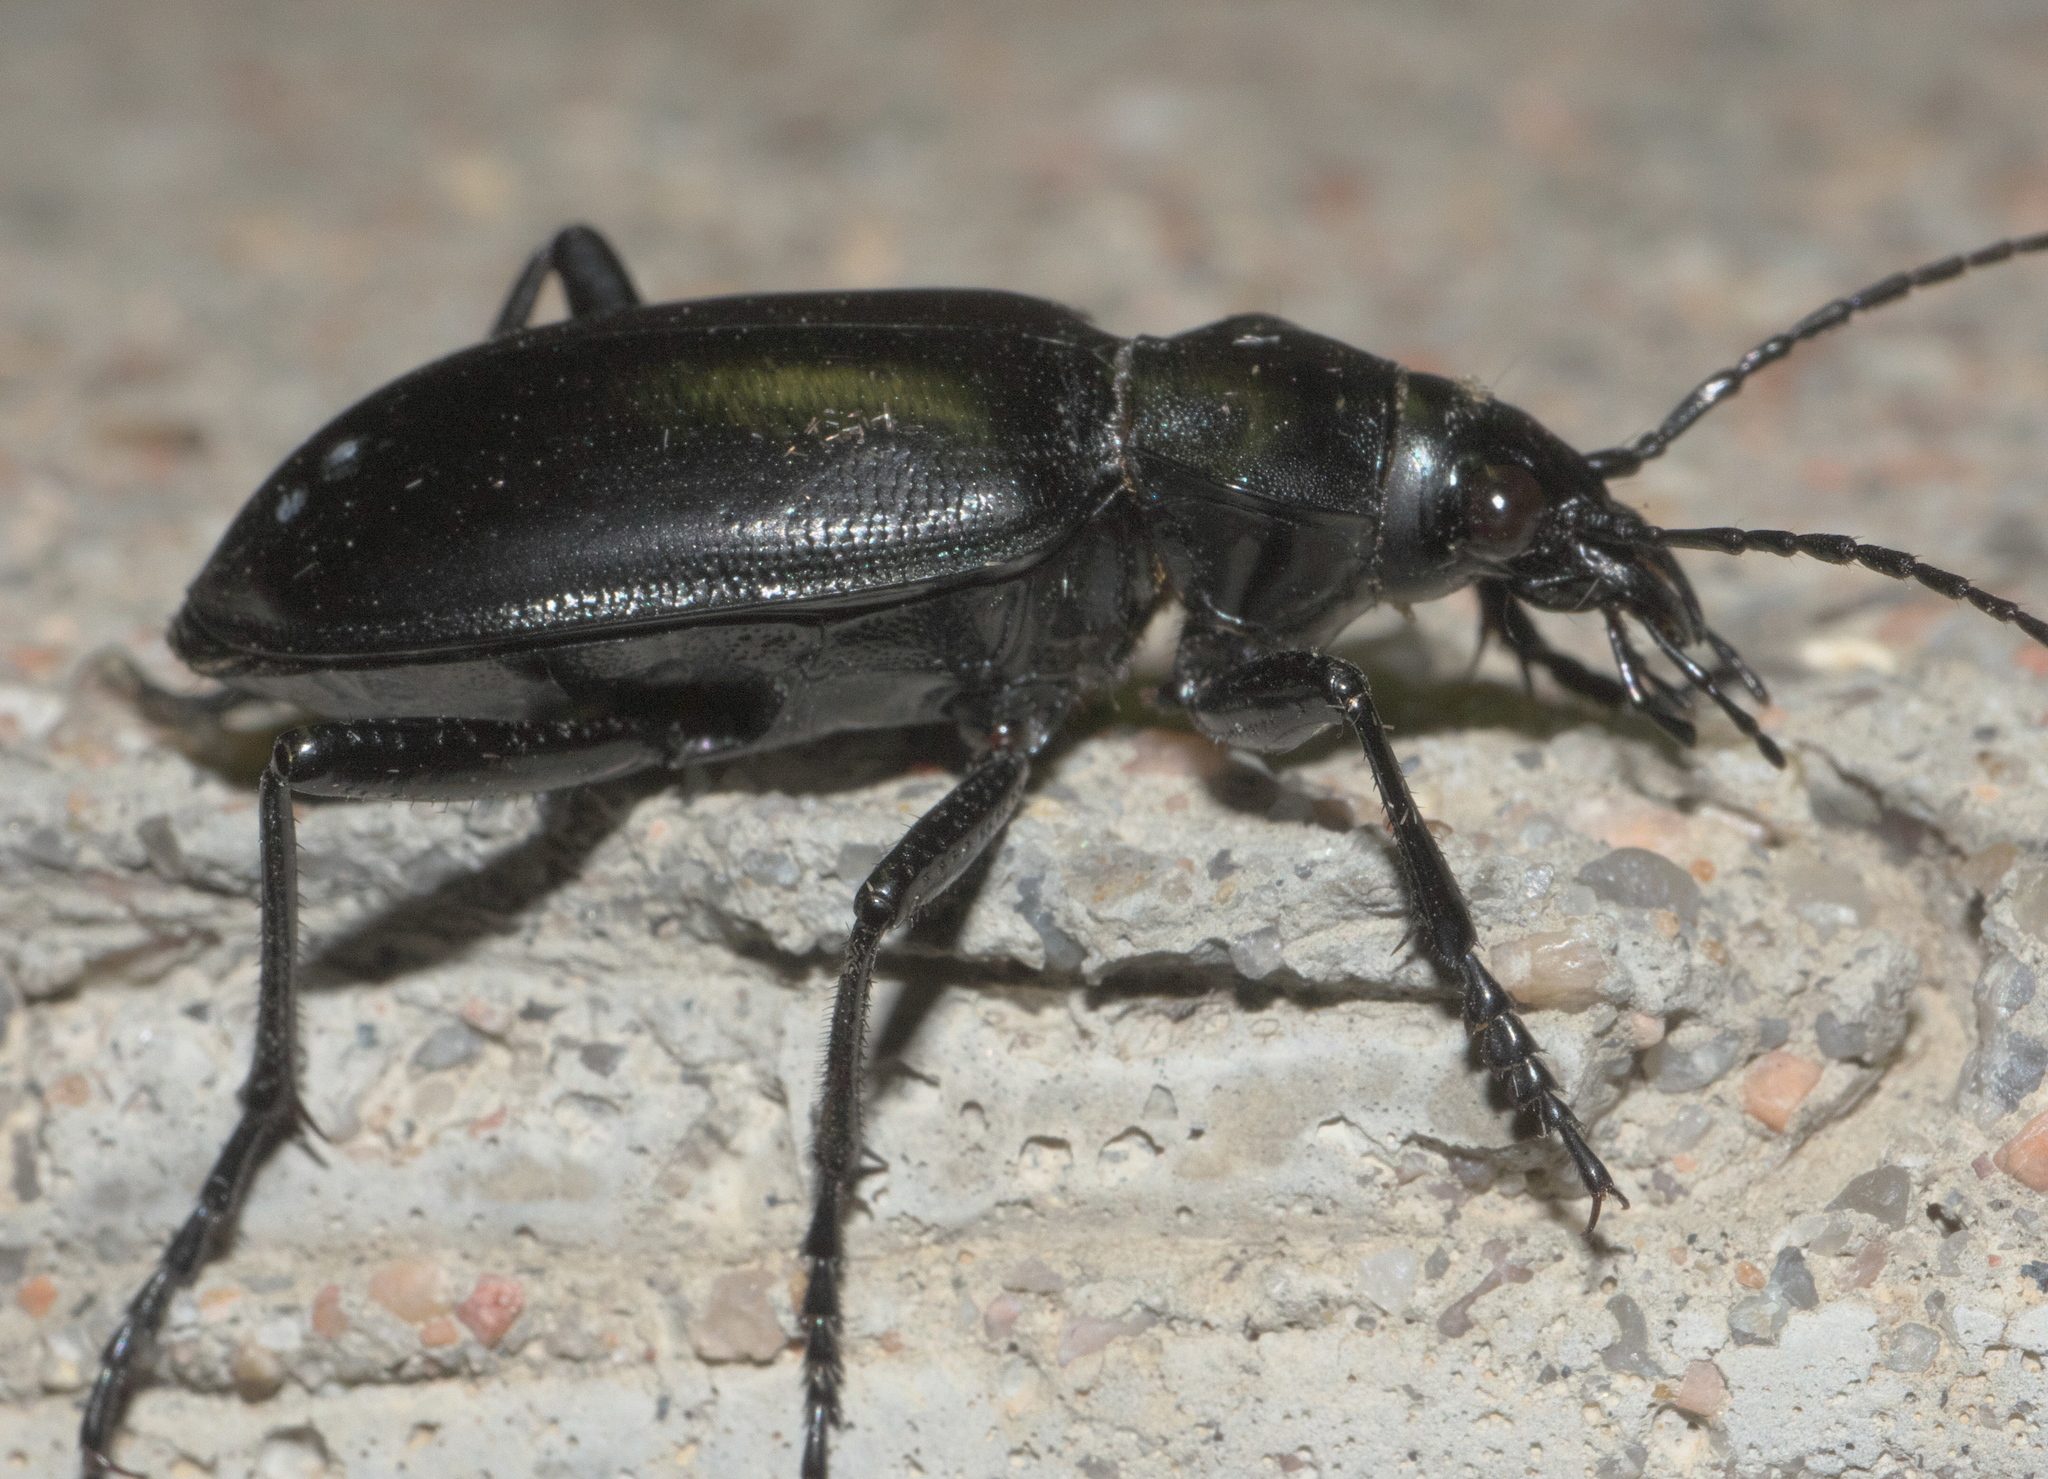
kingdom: Animalia
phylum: Arthropoda
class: Insecta
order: Coleoptera
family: Carabidae
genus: Calosoma
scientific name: Calosoma peregrinator
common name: Ground beetle
